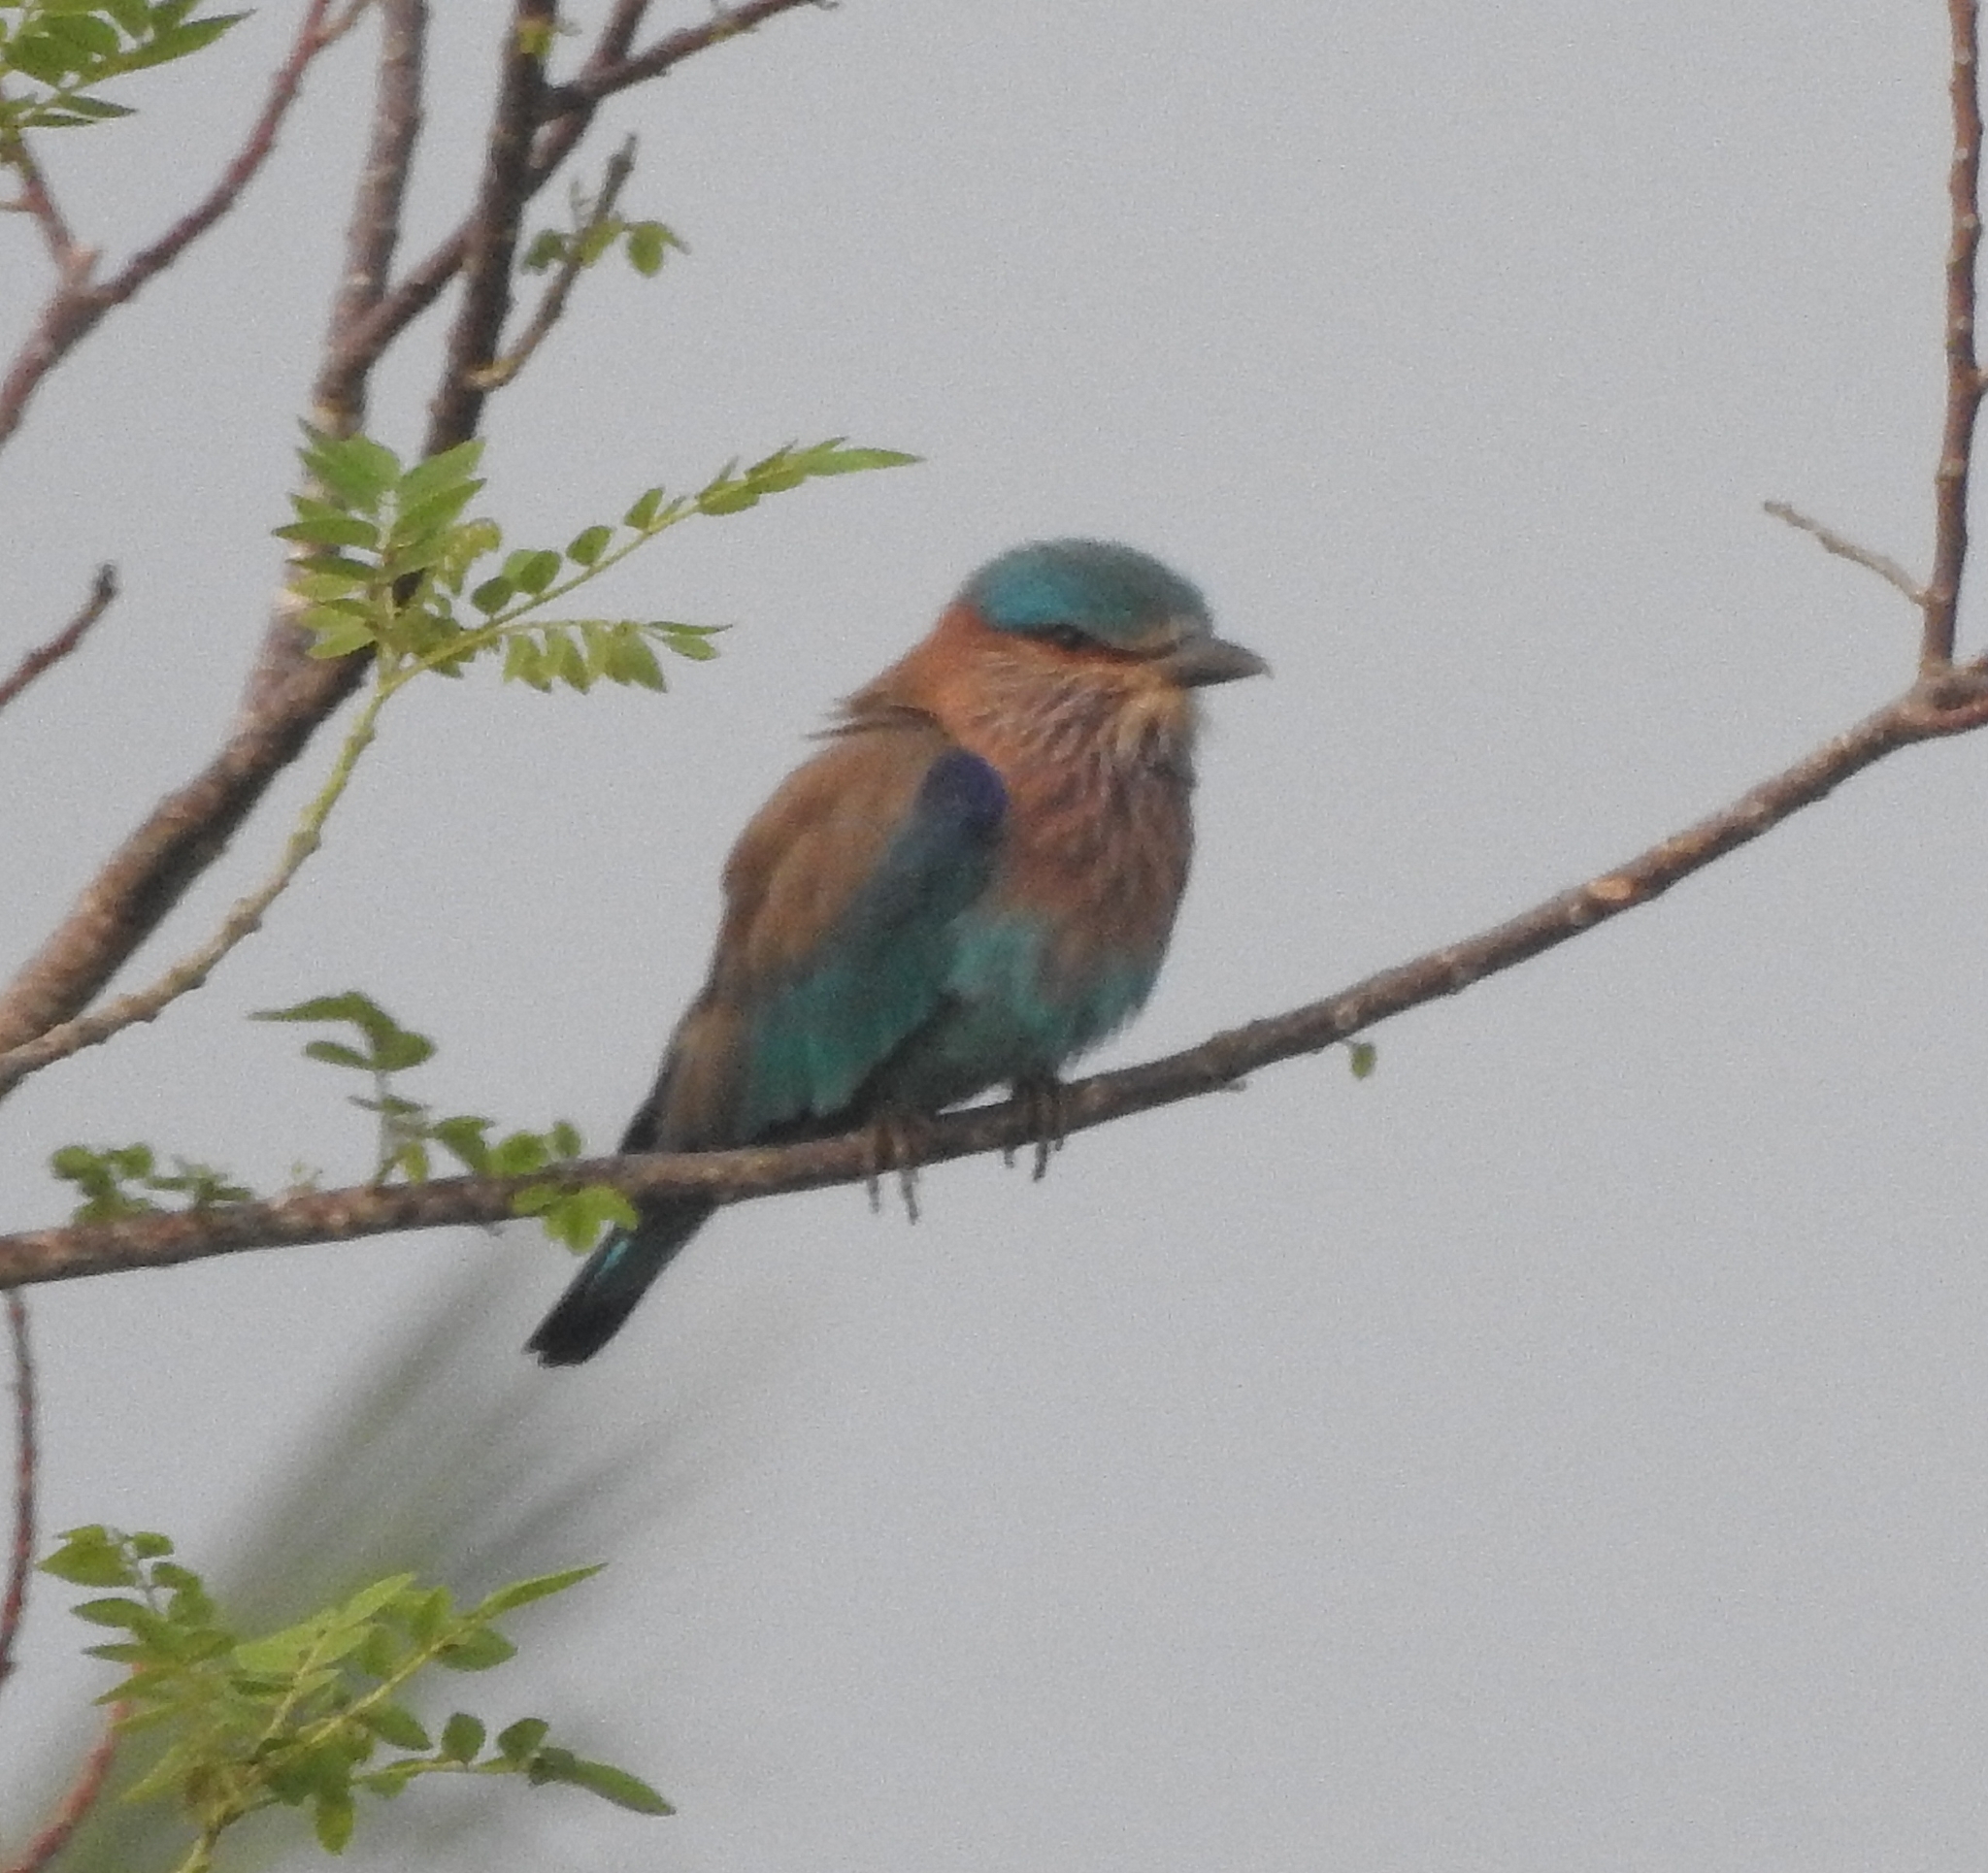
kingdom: Animalia
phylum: Chordata
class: Aves
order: Coraciiformes
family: Coraciidae
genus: Coracias
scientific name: Coracias benghalensis
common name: Indian roller
